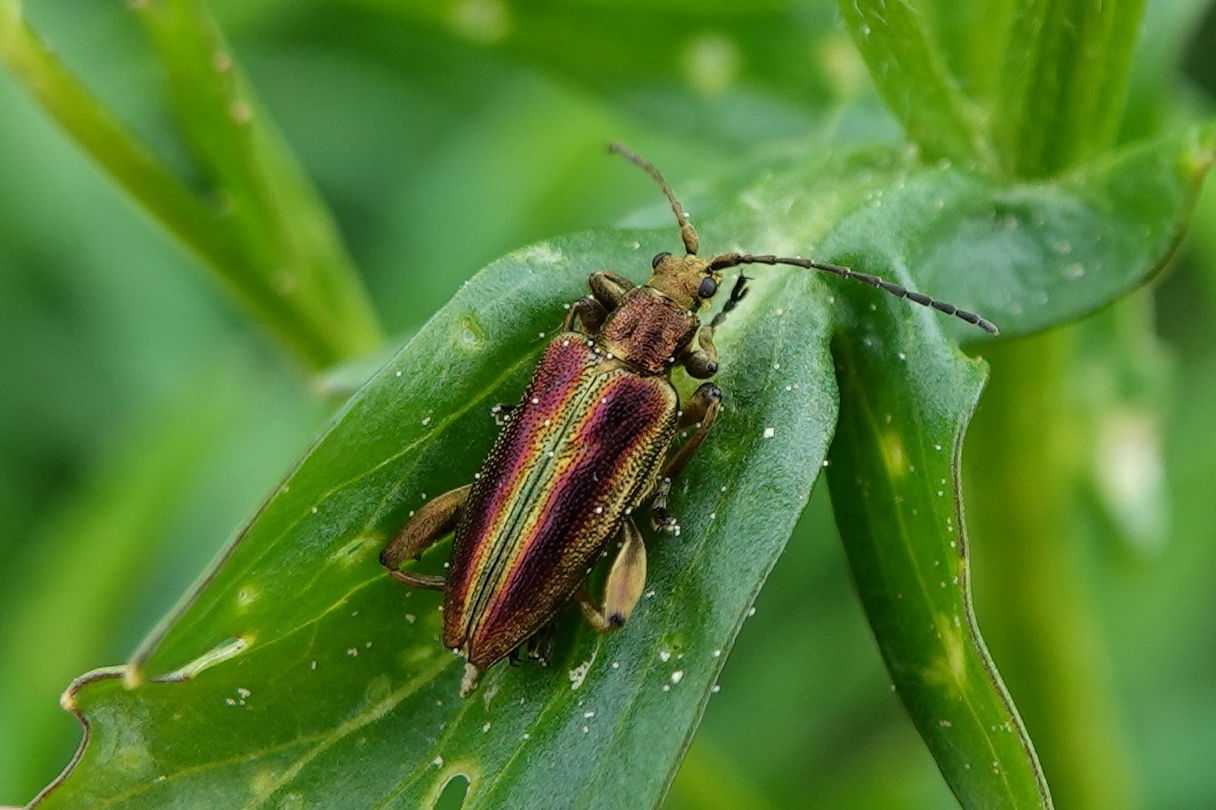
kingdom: Animalia
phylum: Arthropoda
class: Insecta
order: Coleoptera
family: Chrysomelidae
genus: Donacia
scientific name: Donacia aquatica
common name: Zircon reed beetle
